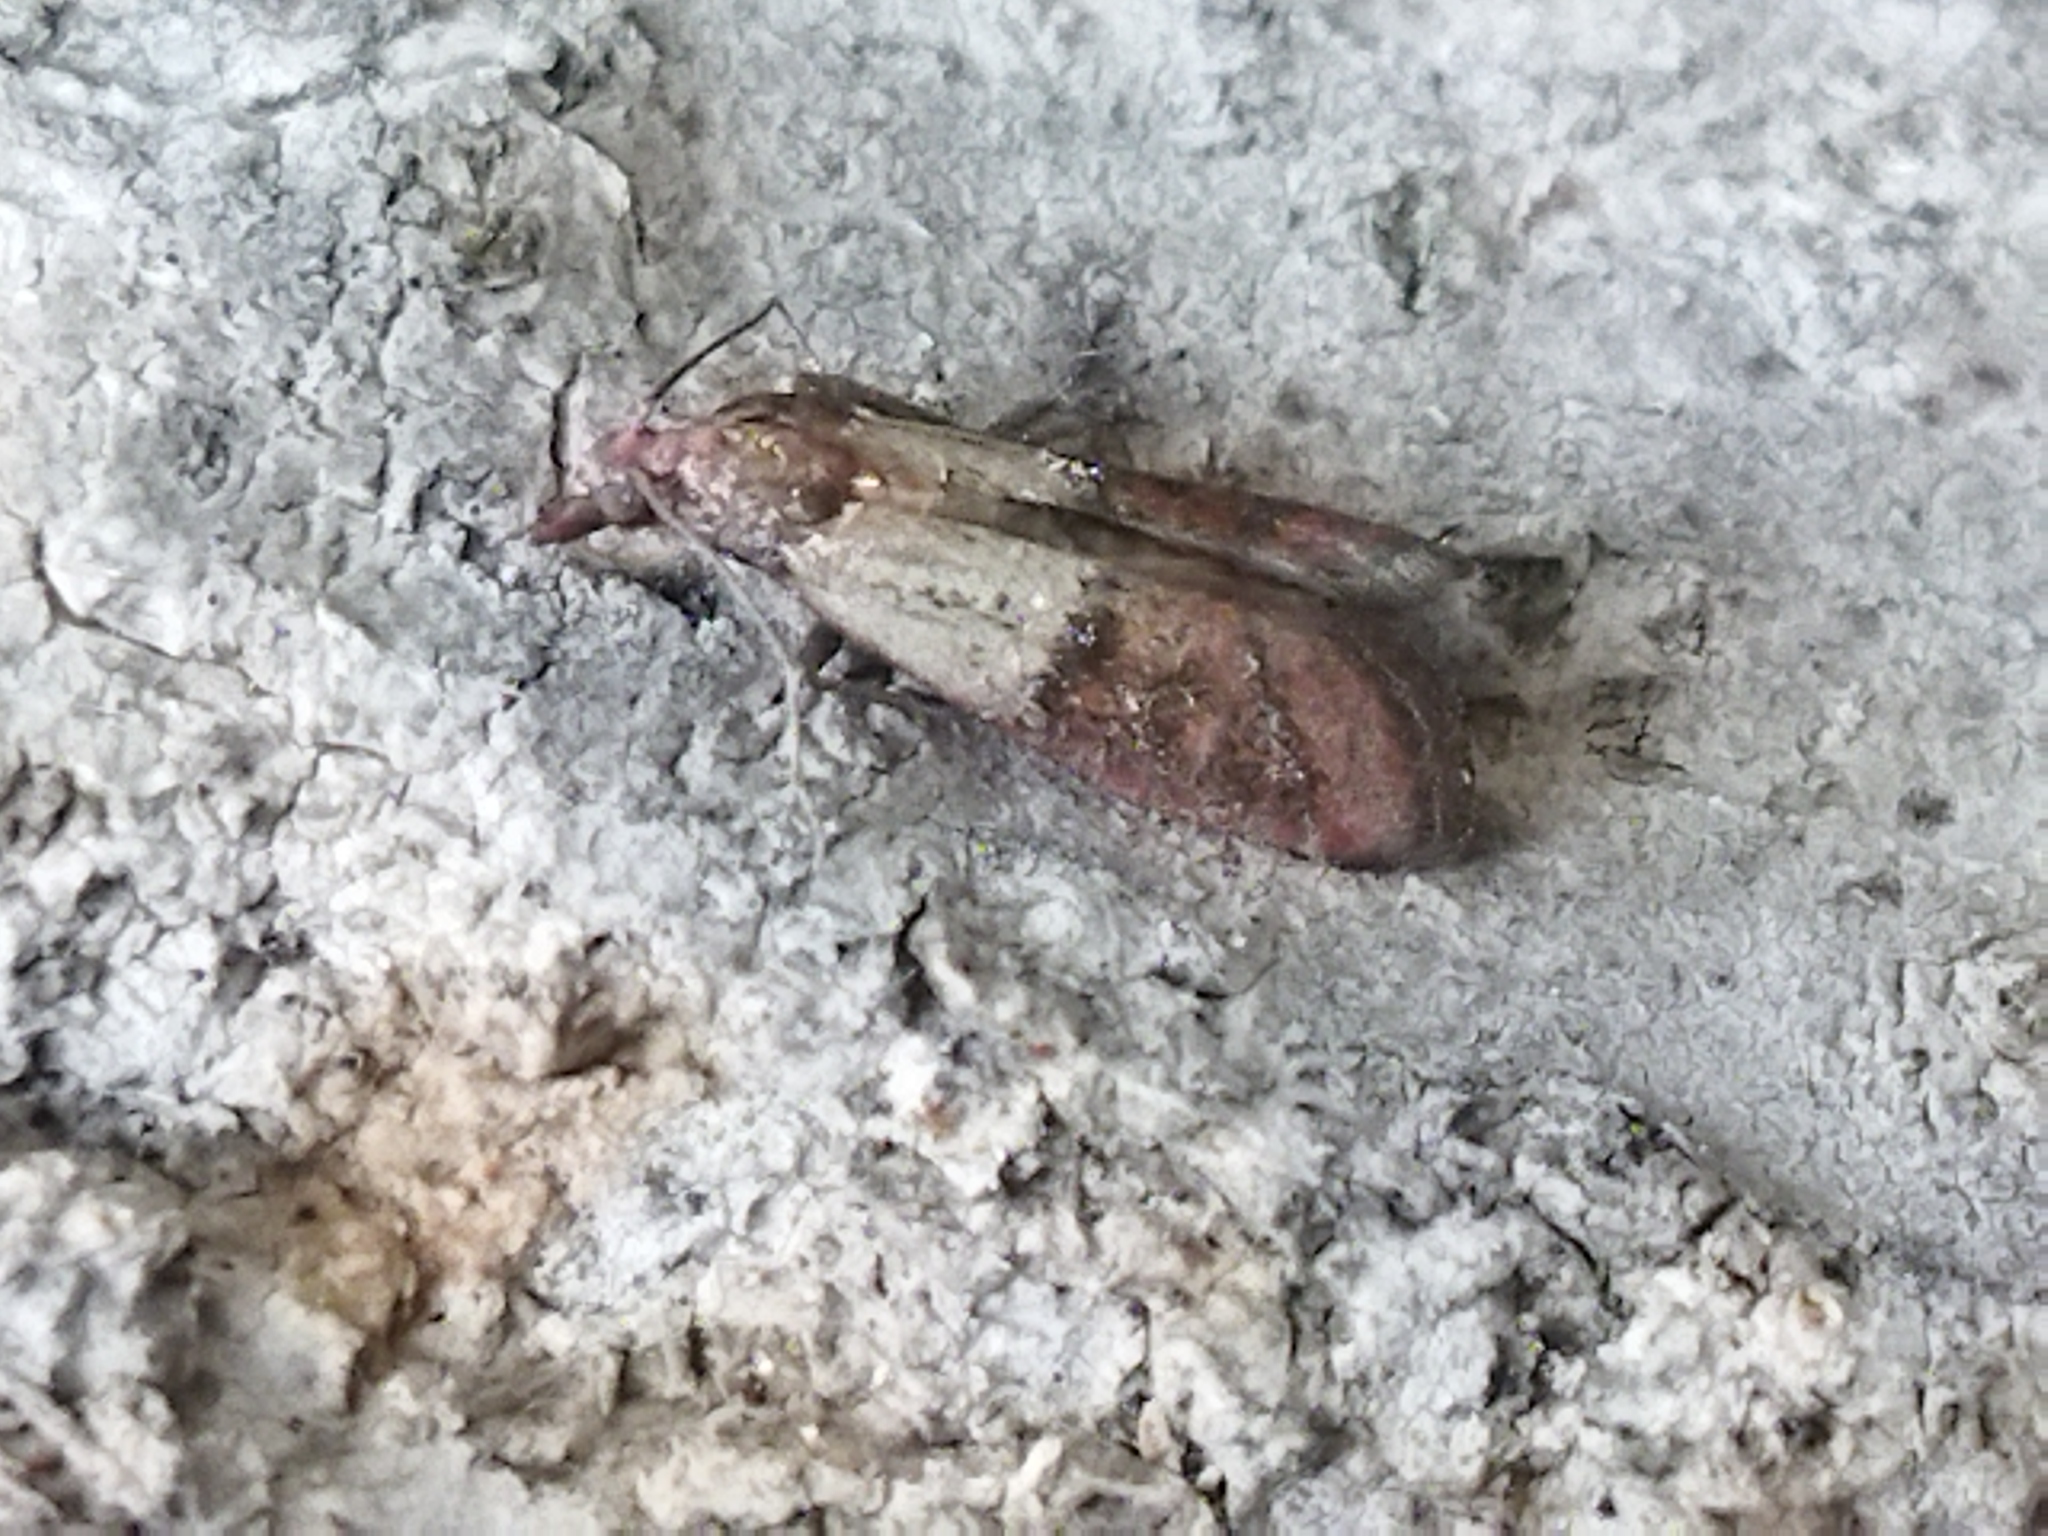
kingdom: Animalia
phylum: Arthropoda
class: Insecta
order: Lepidoptera
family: Pyralidae
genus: Plodia
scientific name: Plodia interpunctella
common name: Indian meal moth
